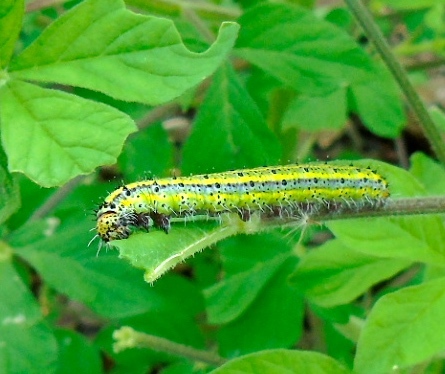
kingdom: Animalia
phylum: Arthropoda
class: Insecta
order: Lepidoptera
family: Pieridae
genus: Ascia
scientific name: Ascia monuste
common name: Great southern white
